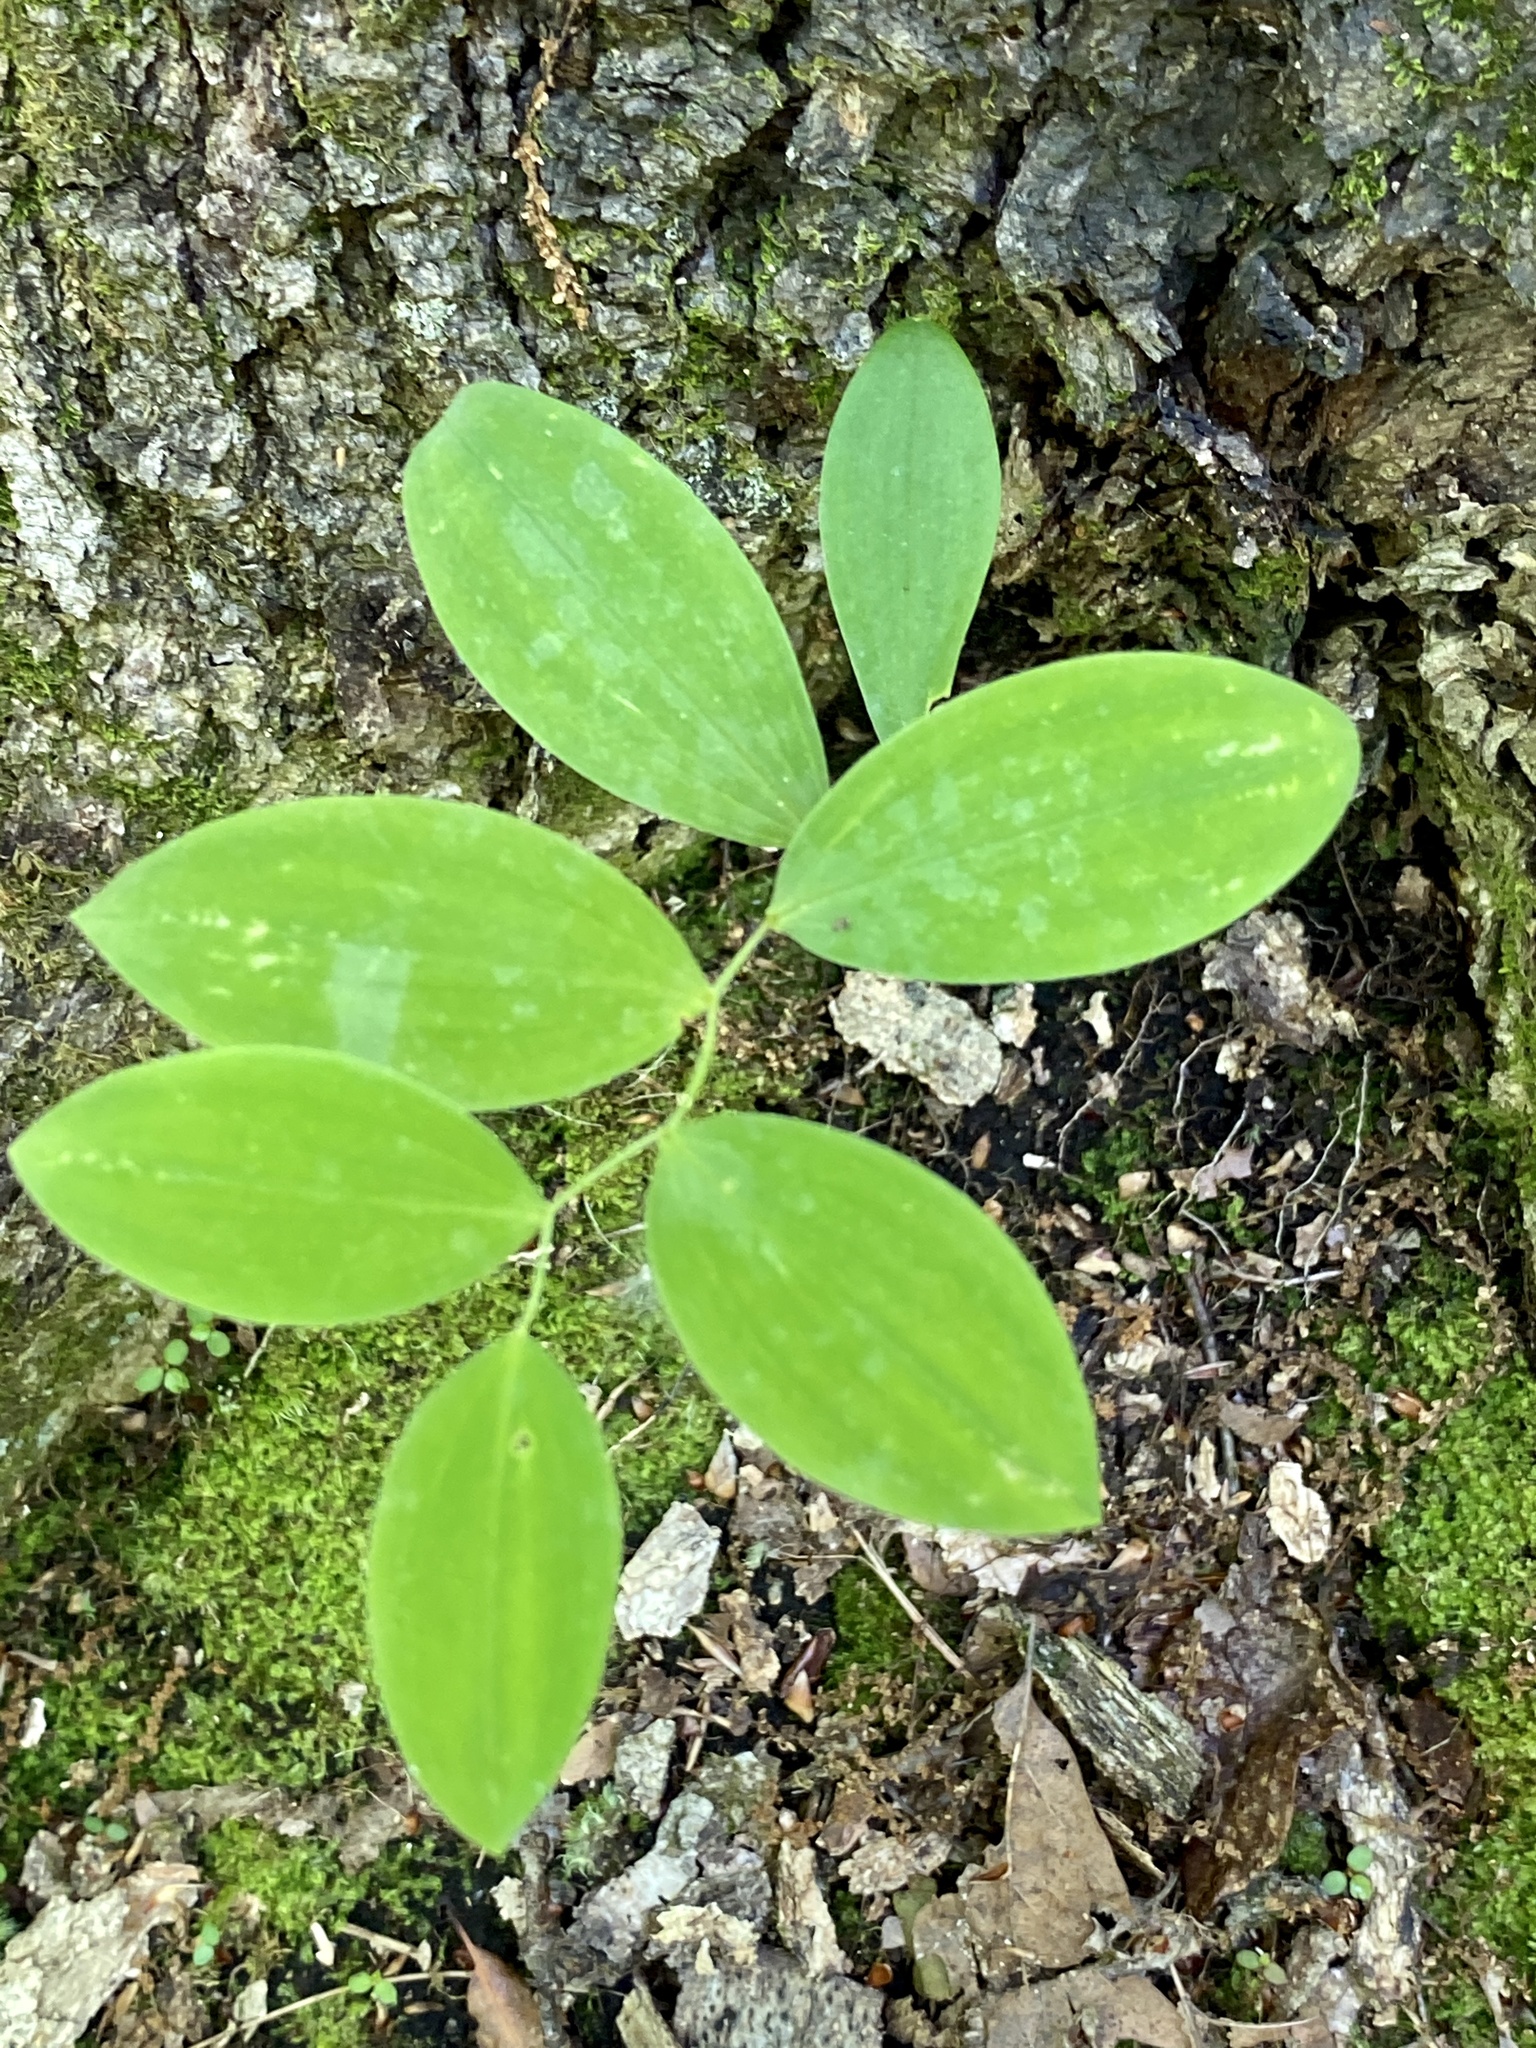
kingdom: Plantae
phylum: Tracheophyta
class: Liliopsida
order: Liliales
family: Colchicaceae
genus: Uvularia
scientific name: Uvularia sessilifolia
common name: Straw-lily
